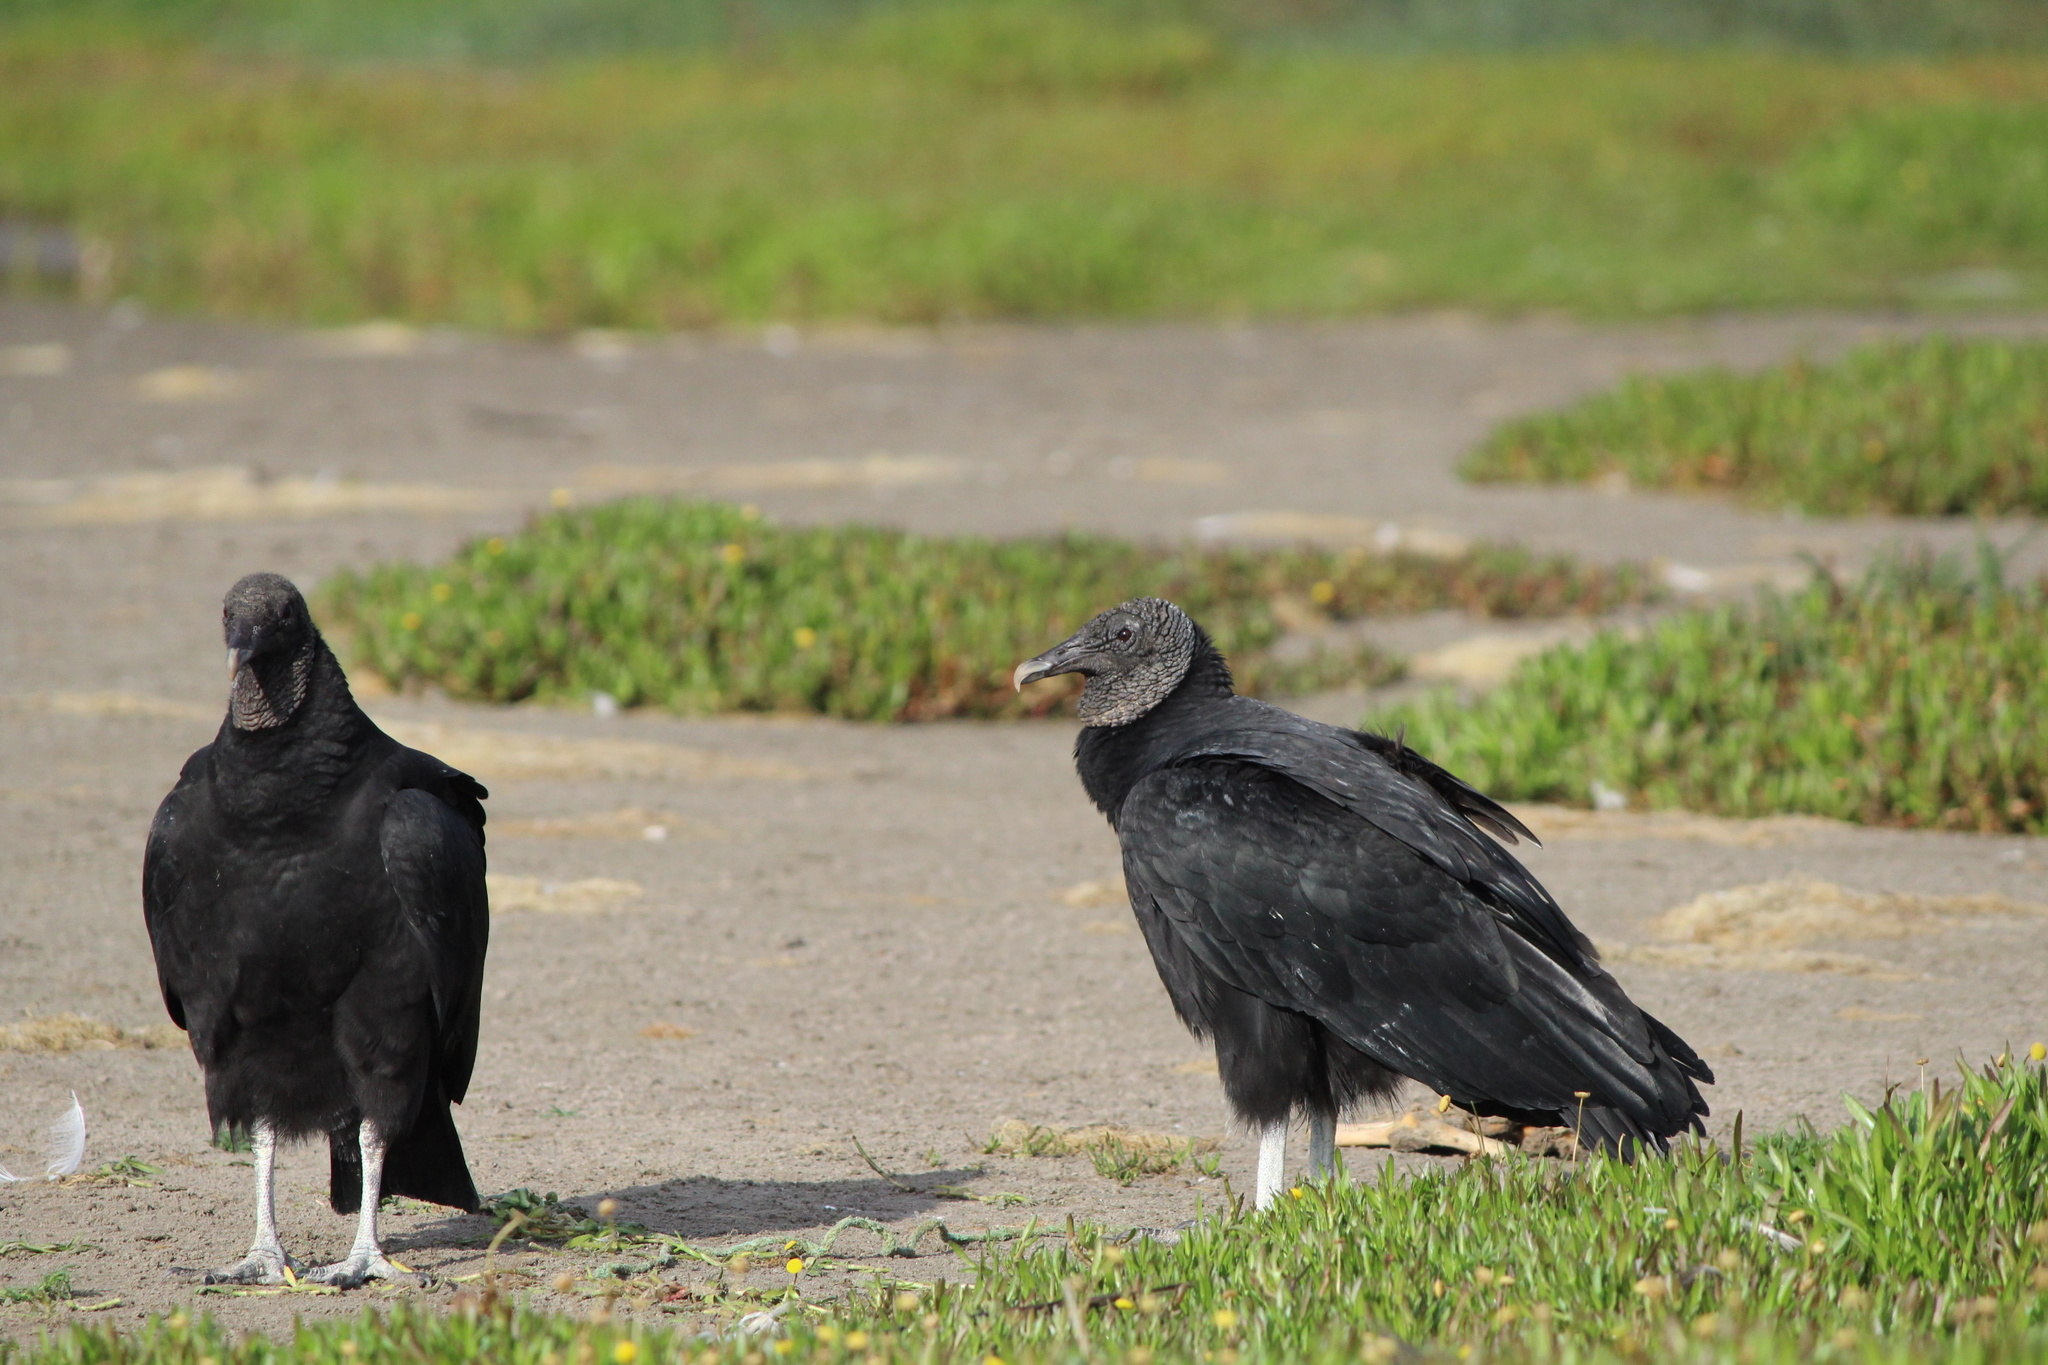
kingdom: Animalia
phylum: Chordata
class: Aves
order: Accipitriformes
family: Cathartidae
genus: Coragyps
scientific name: Coragyps atratus
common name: Black vulture
